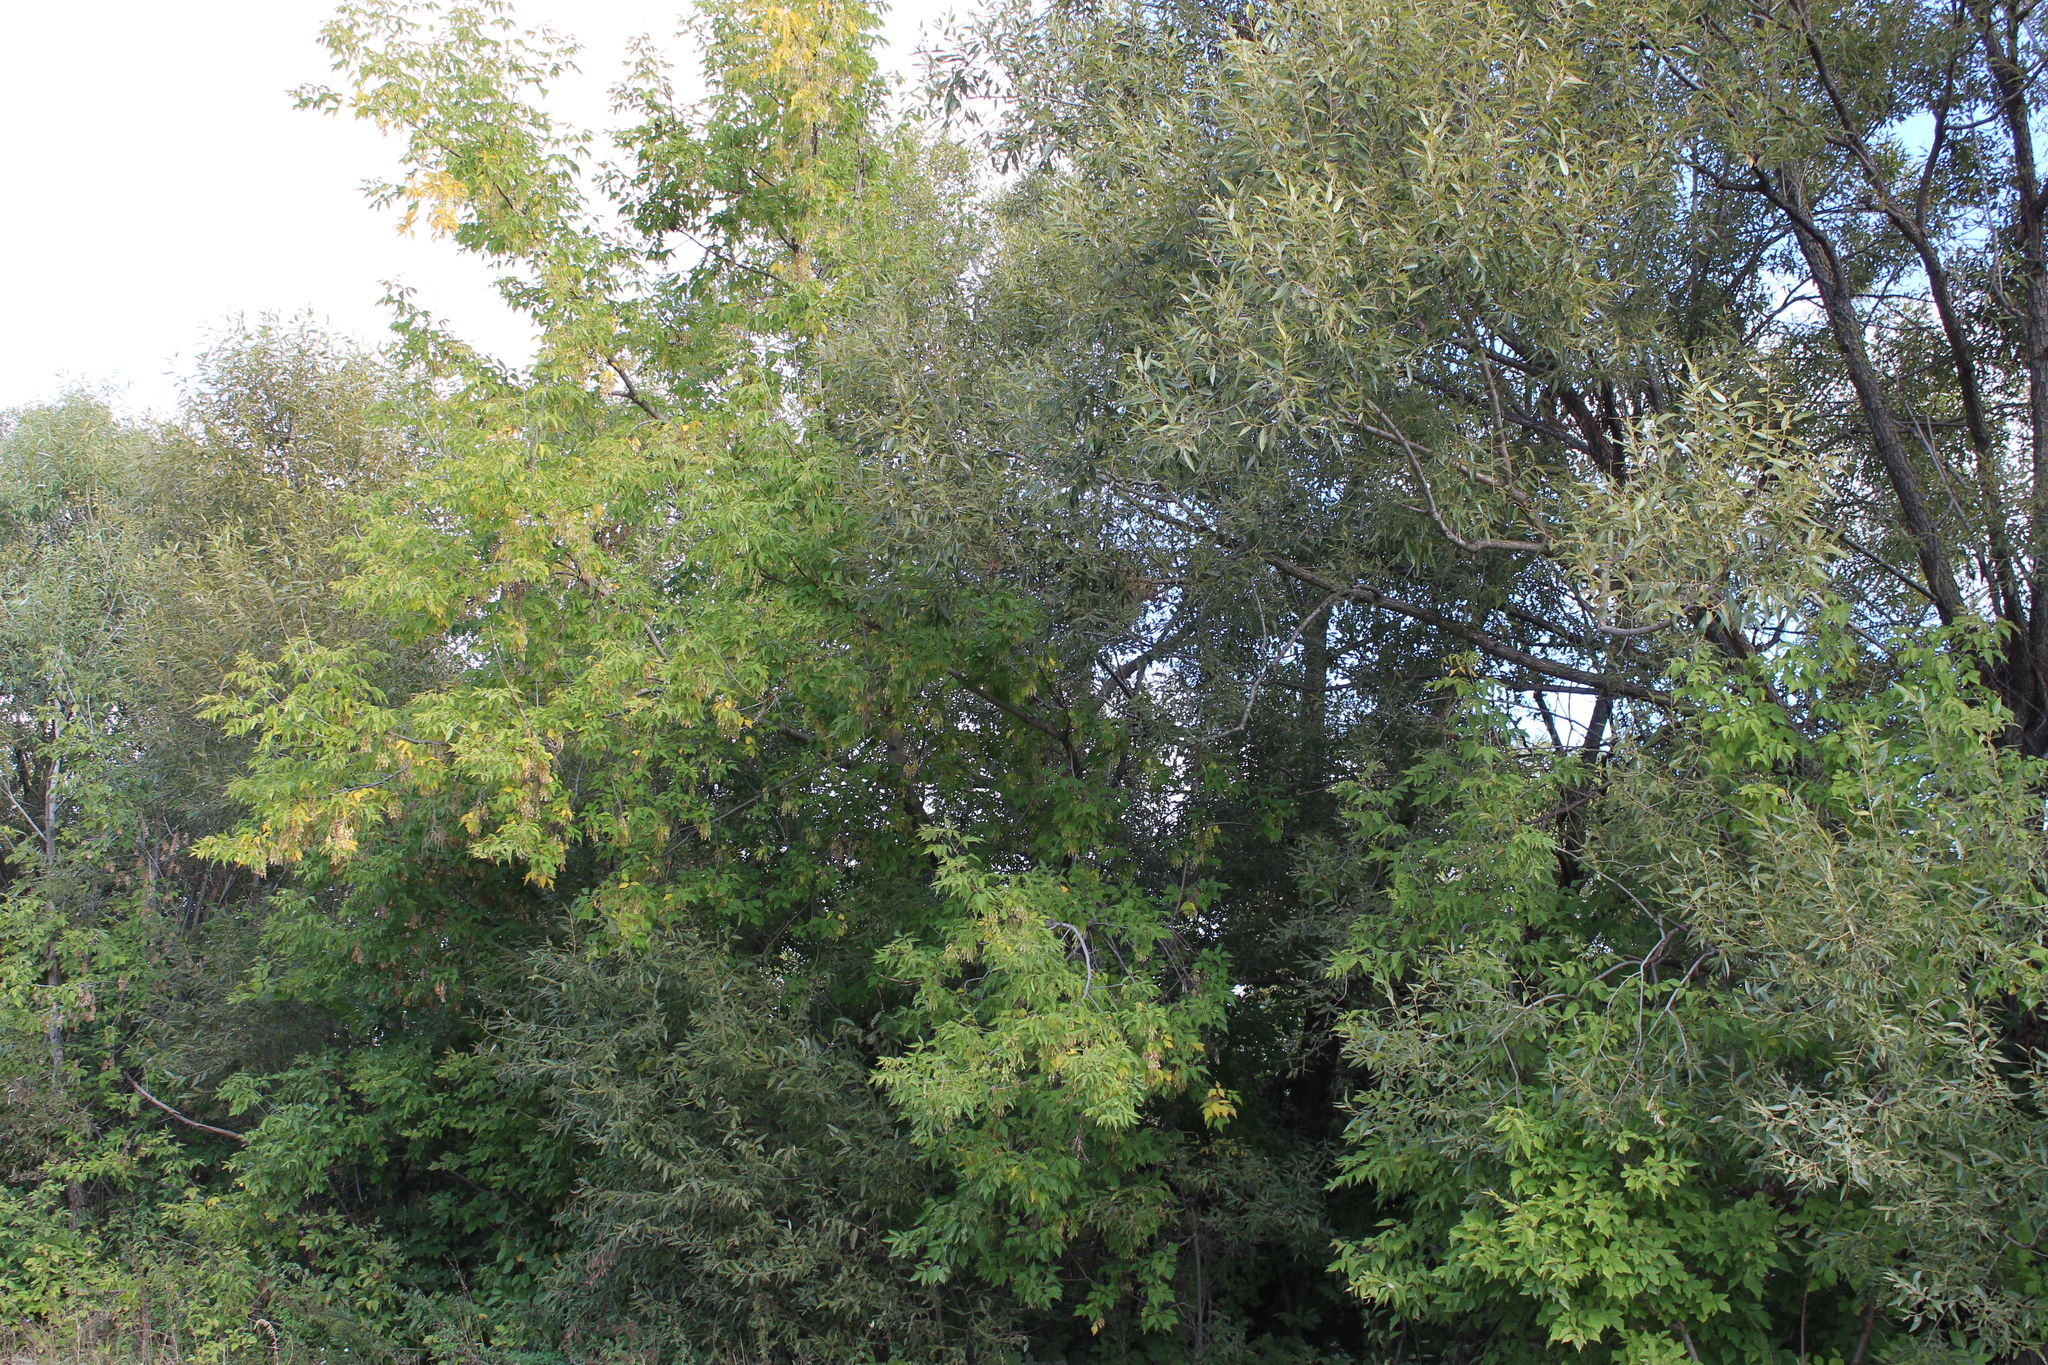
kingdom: Plantae
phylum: Tracheophyta
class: Magnoliopsida
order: Sapindales
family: Sapindaceae
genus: Acer
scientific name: Acer negundo
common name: Ashleaf maple
